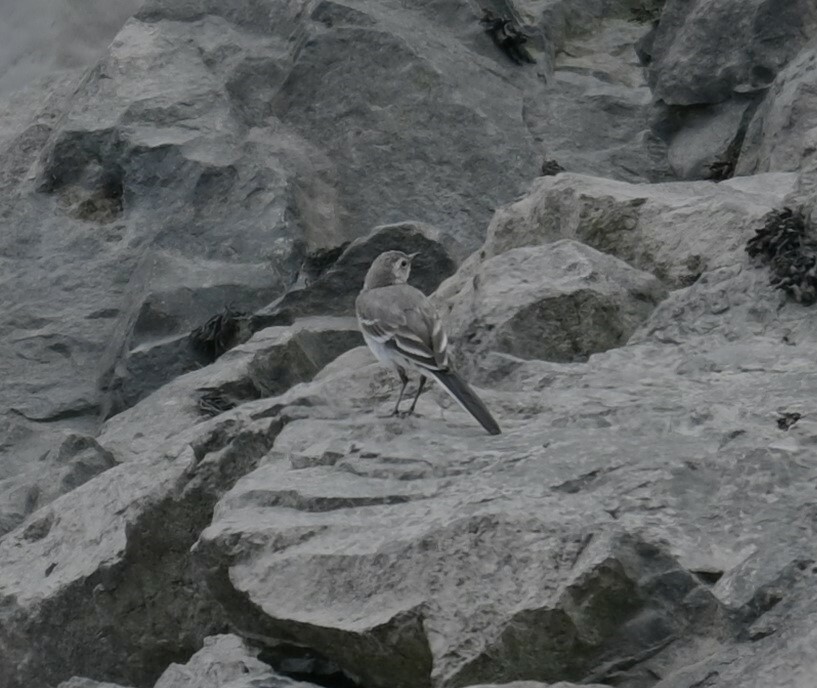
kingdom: Animalia
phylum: Chordata
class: Aves
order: Passeriformes
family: Motacillidae
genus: Motacilla
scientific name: Motacilla alba
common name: White wagtail
